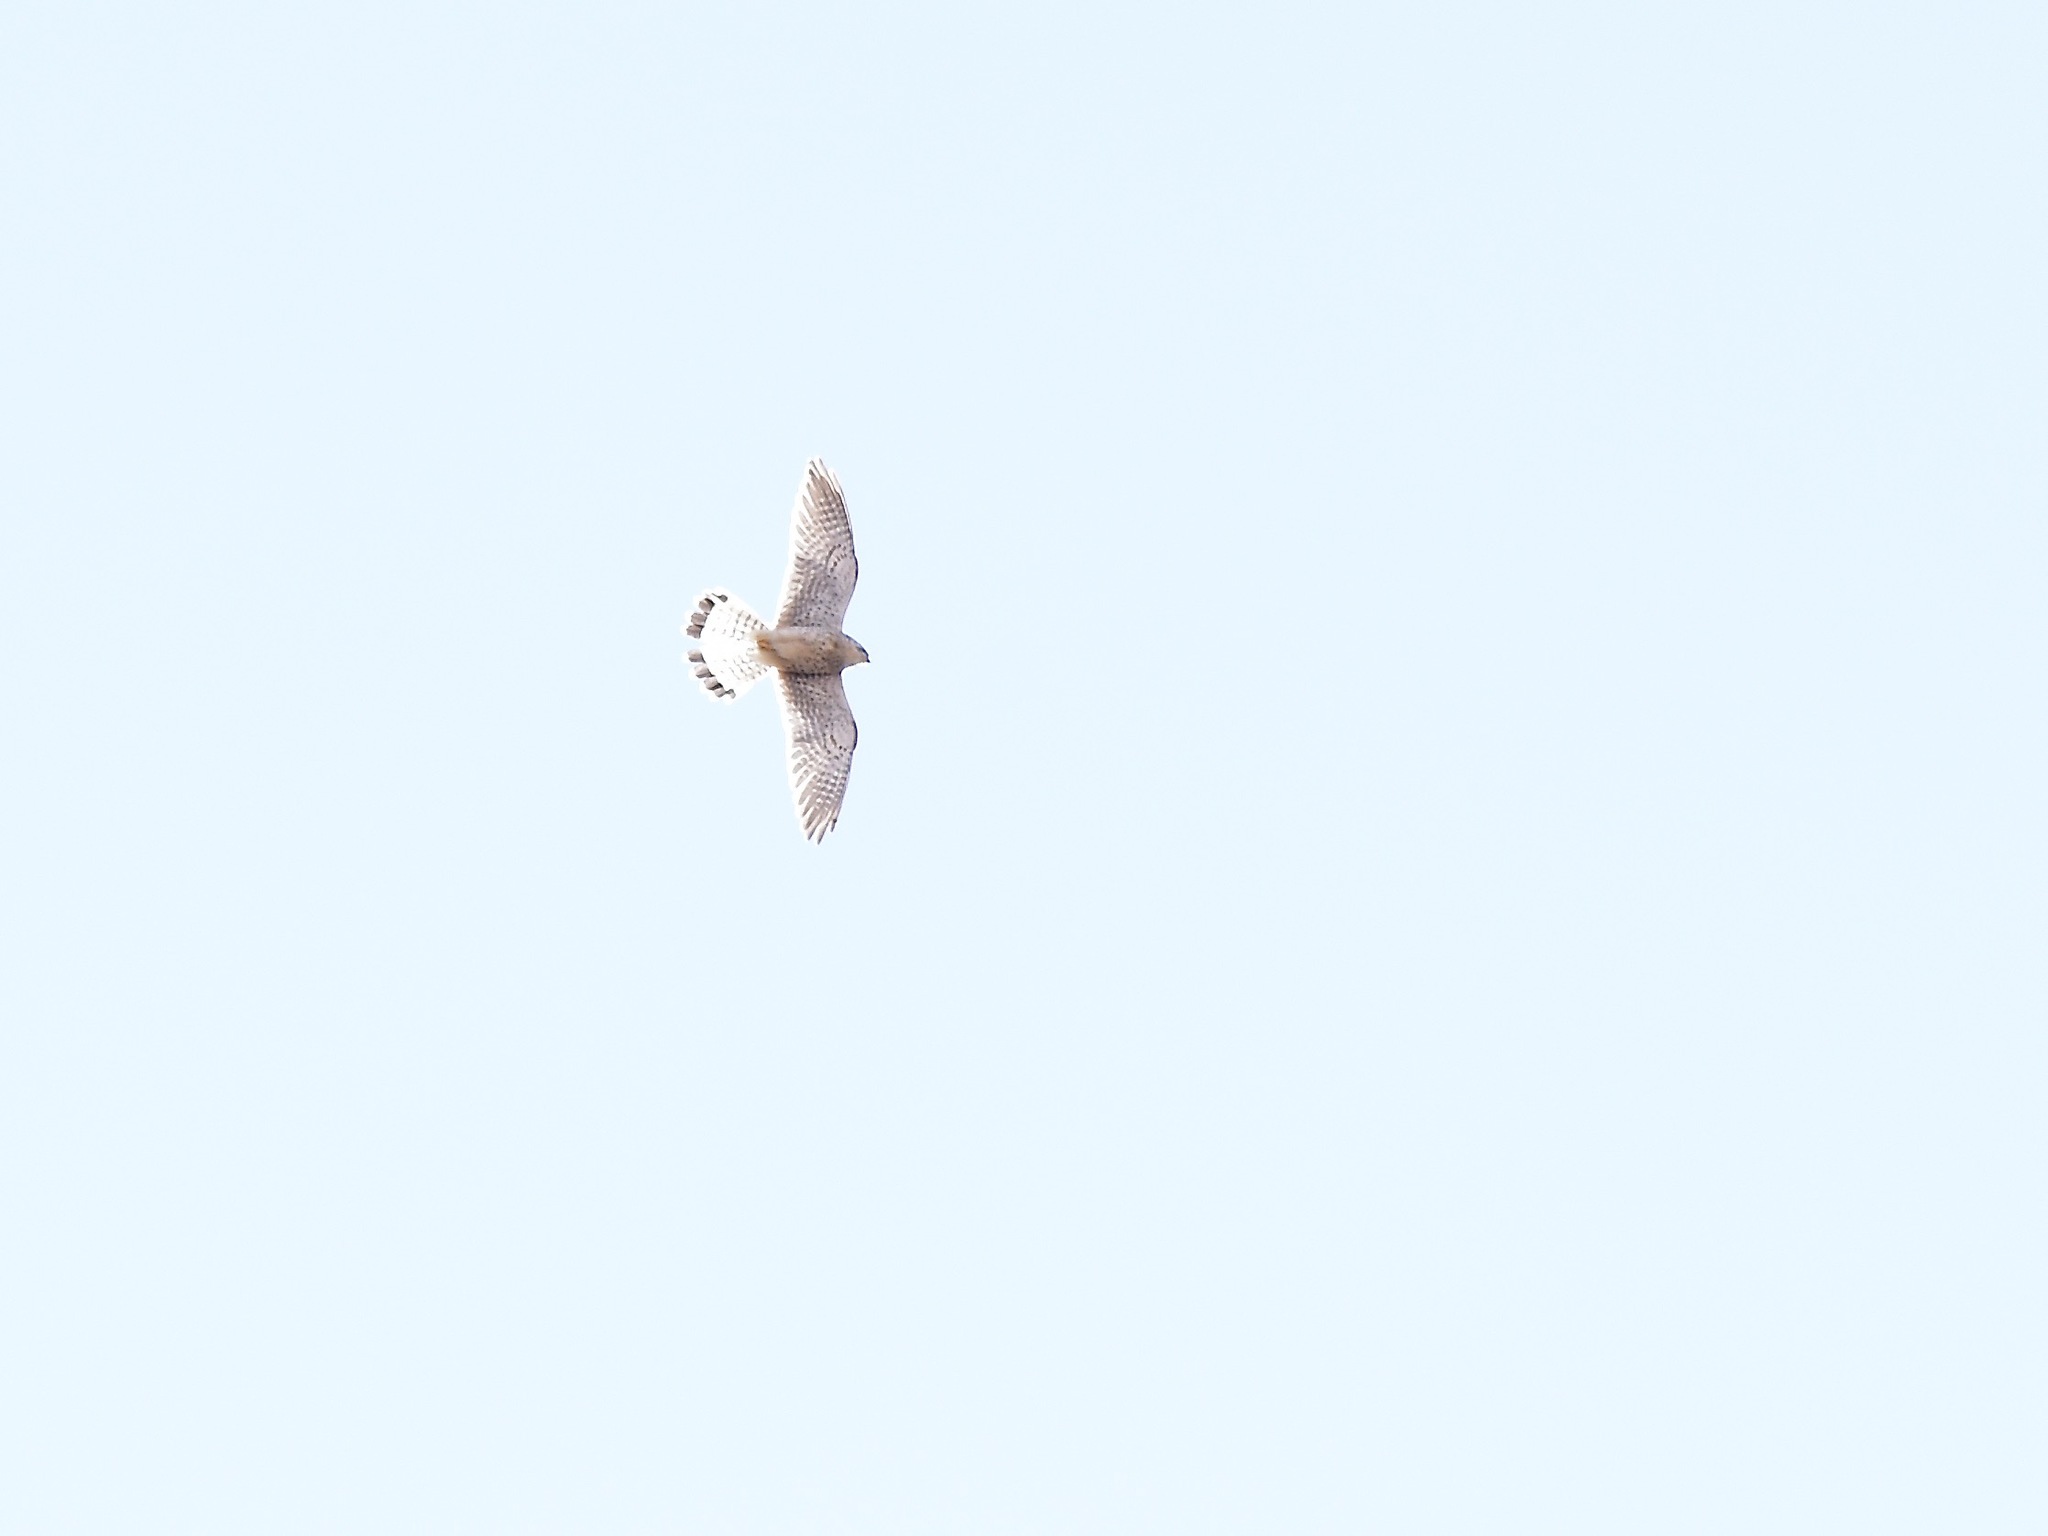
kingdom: Animalia
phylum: Chordata
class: Aves
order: Falconiformes
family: Falconidae
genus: Falco
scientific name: Falco tinnunculus
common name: Common kestrel
